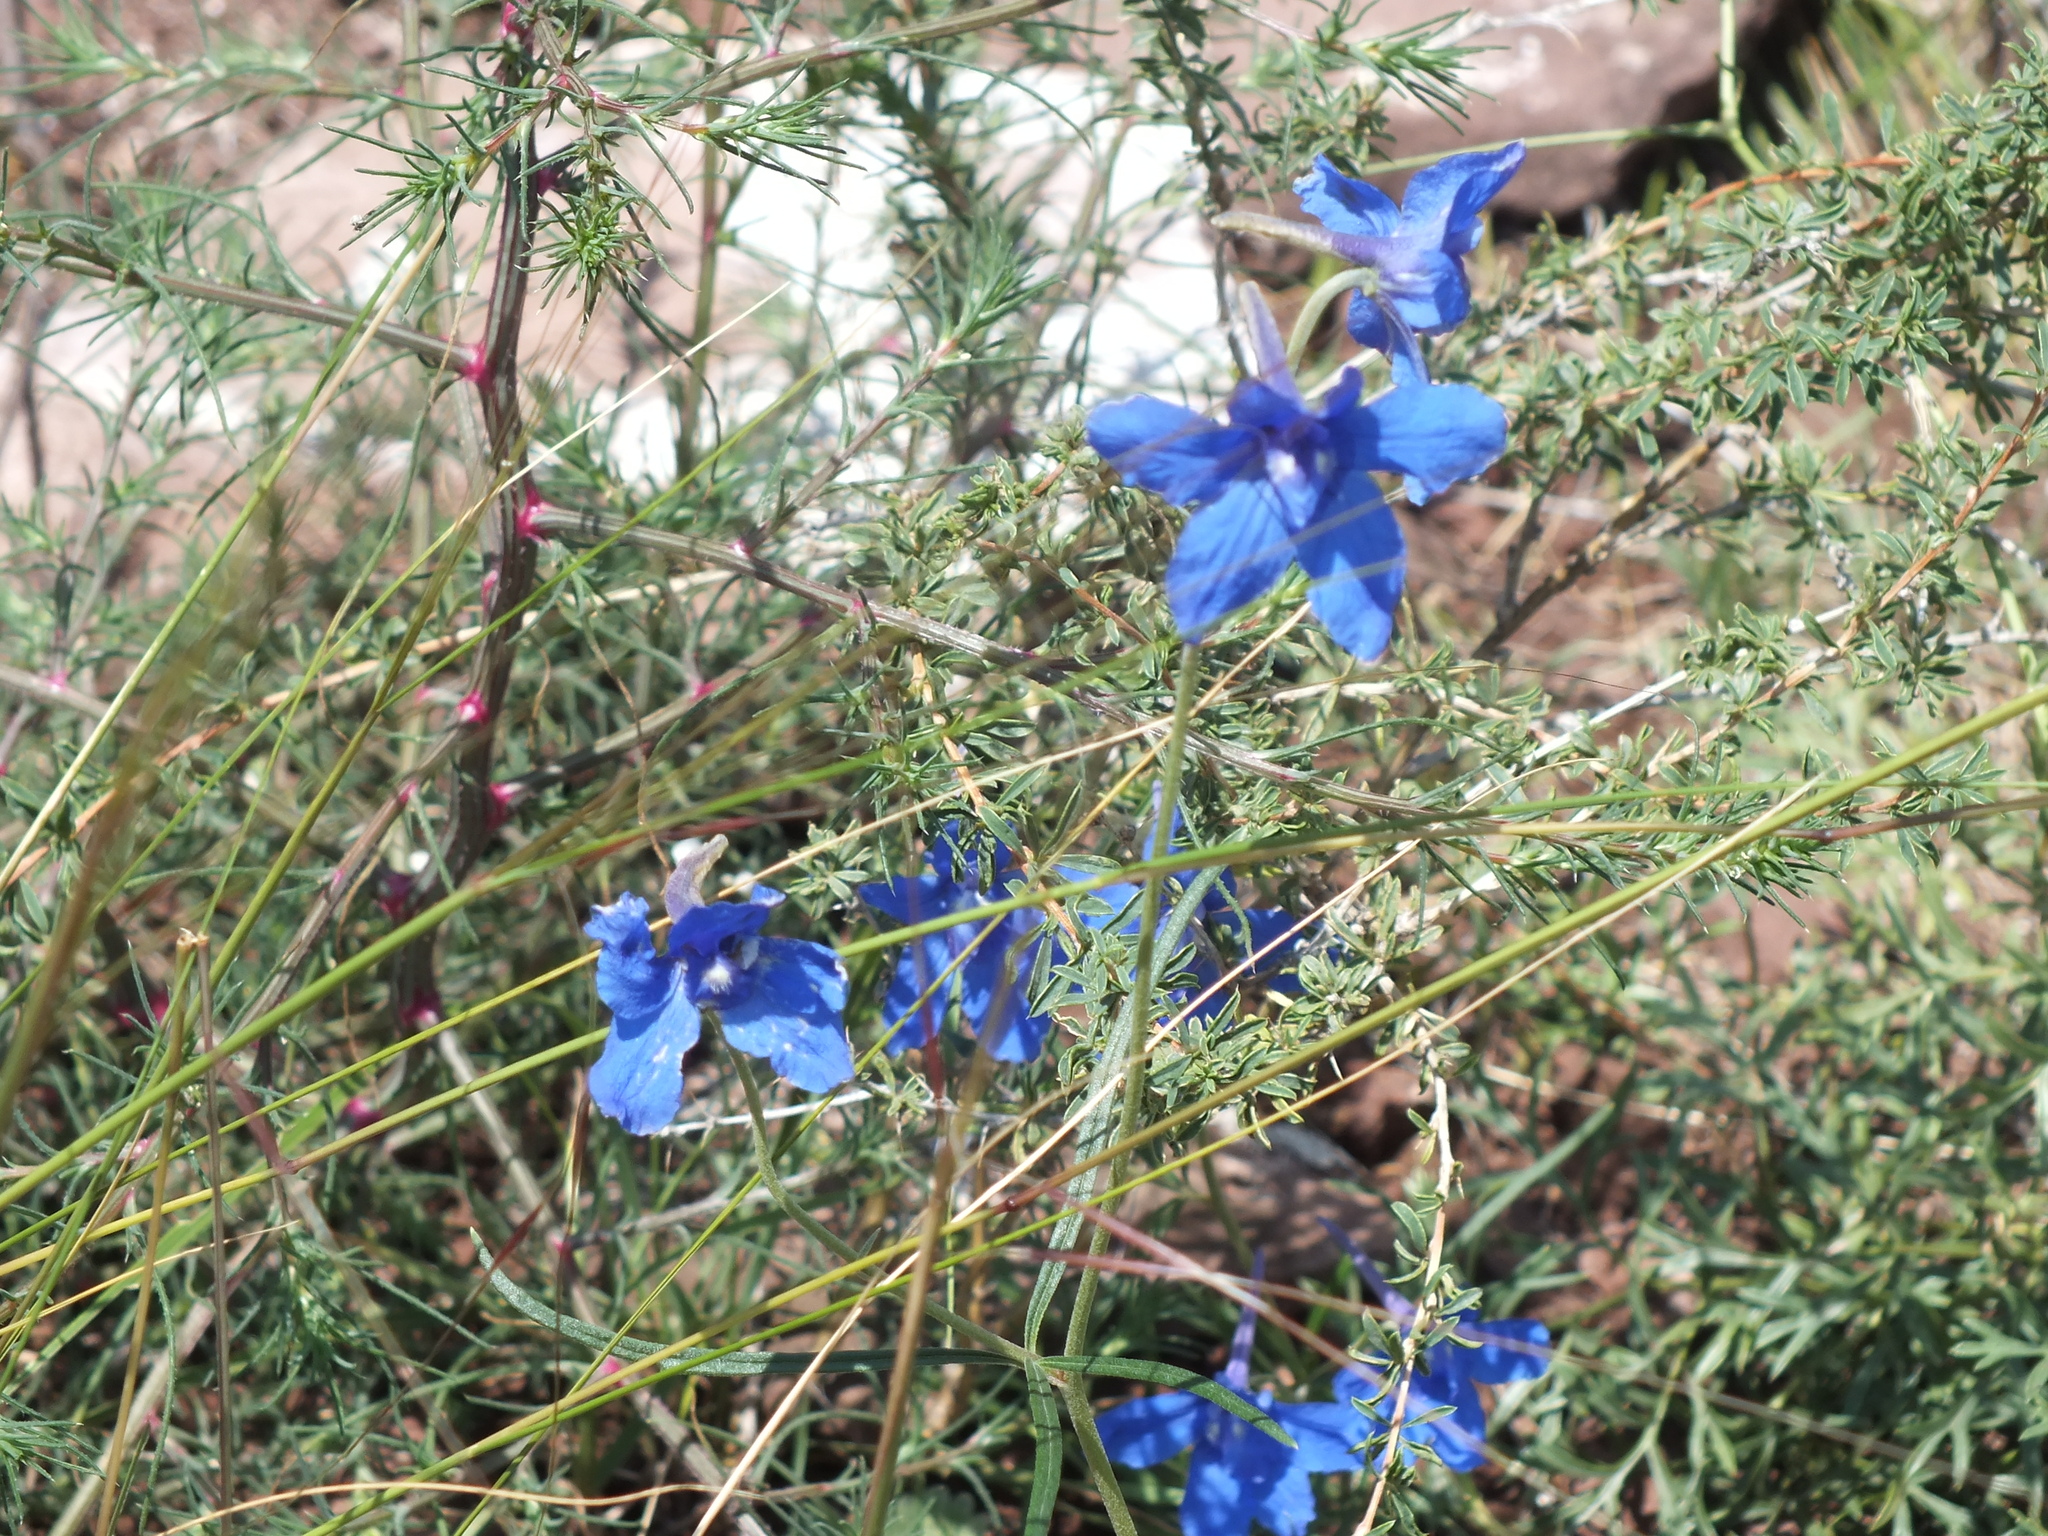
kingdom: Plantae
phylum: Tracheophyta
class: Magnoliopsida
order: Ranunculales
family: Ranunculaceae
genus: Delphinium
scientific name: Delphinium grandiflorum
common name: Siberian larkspur
